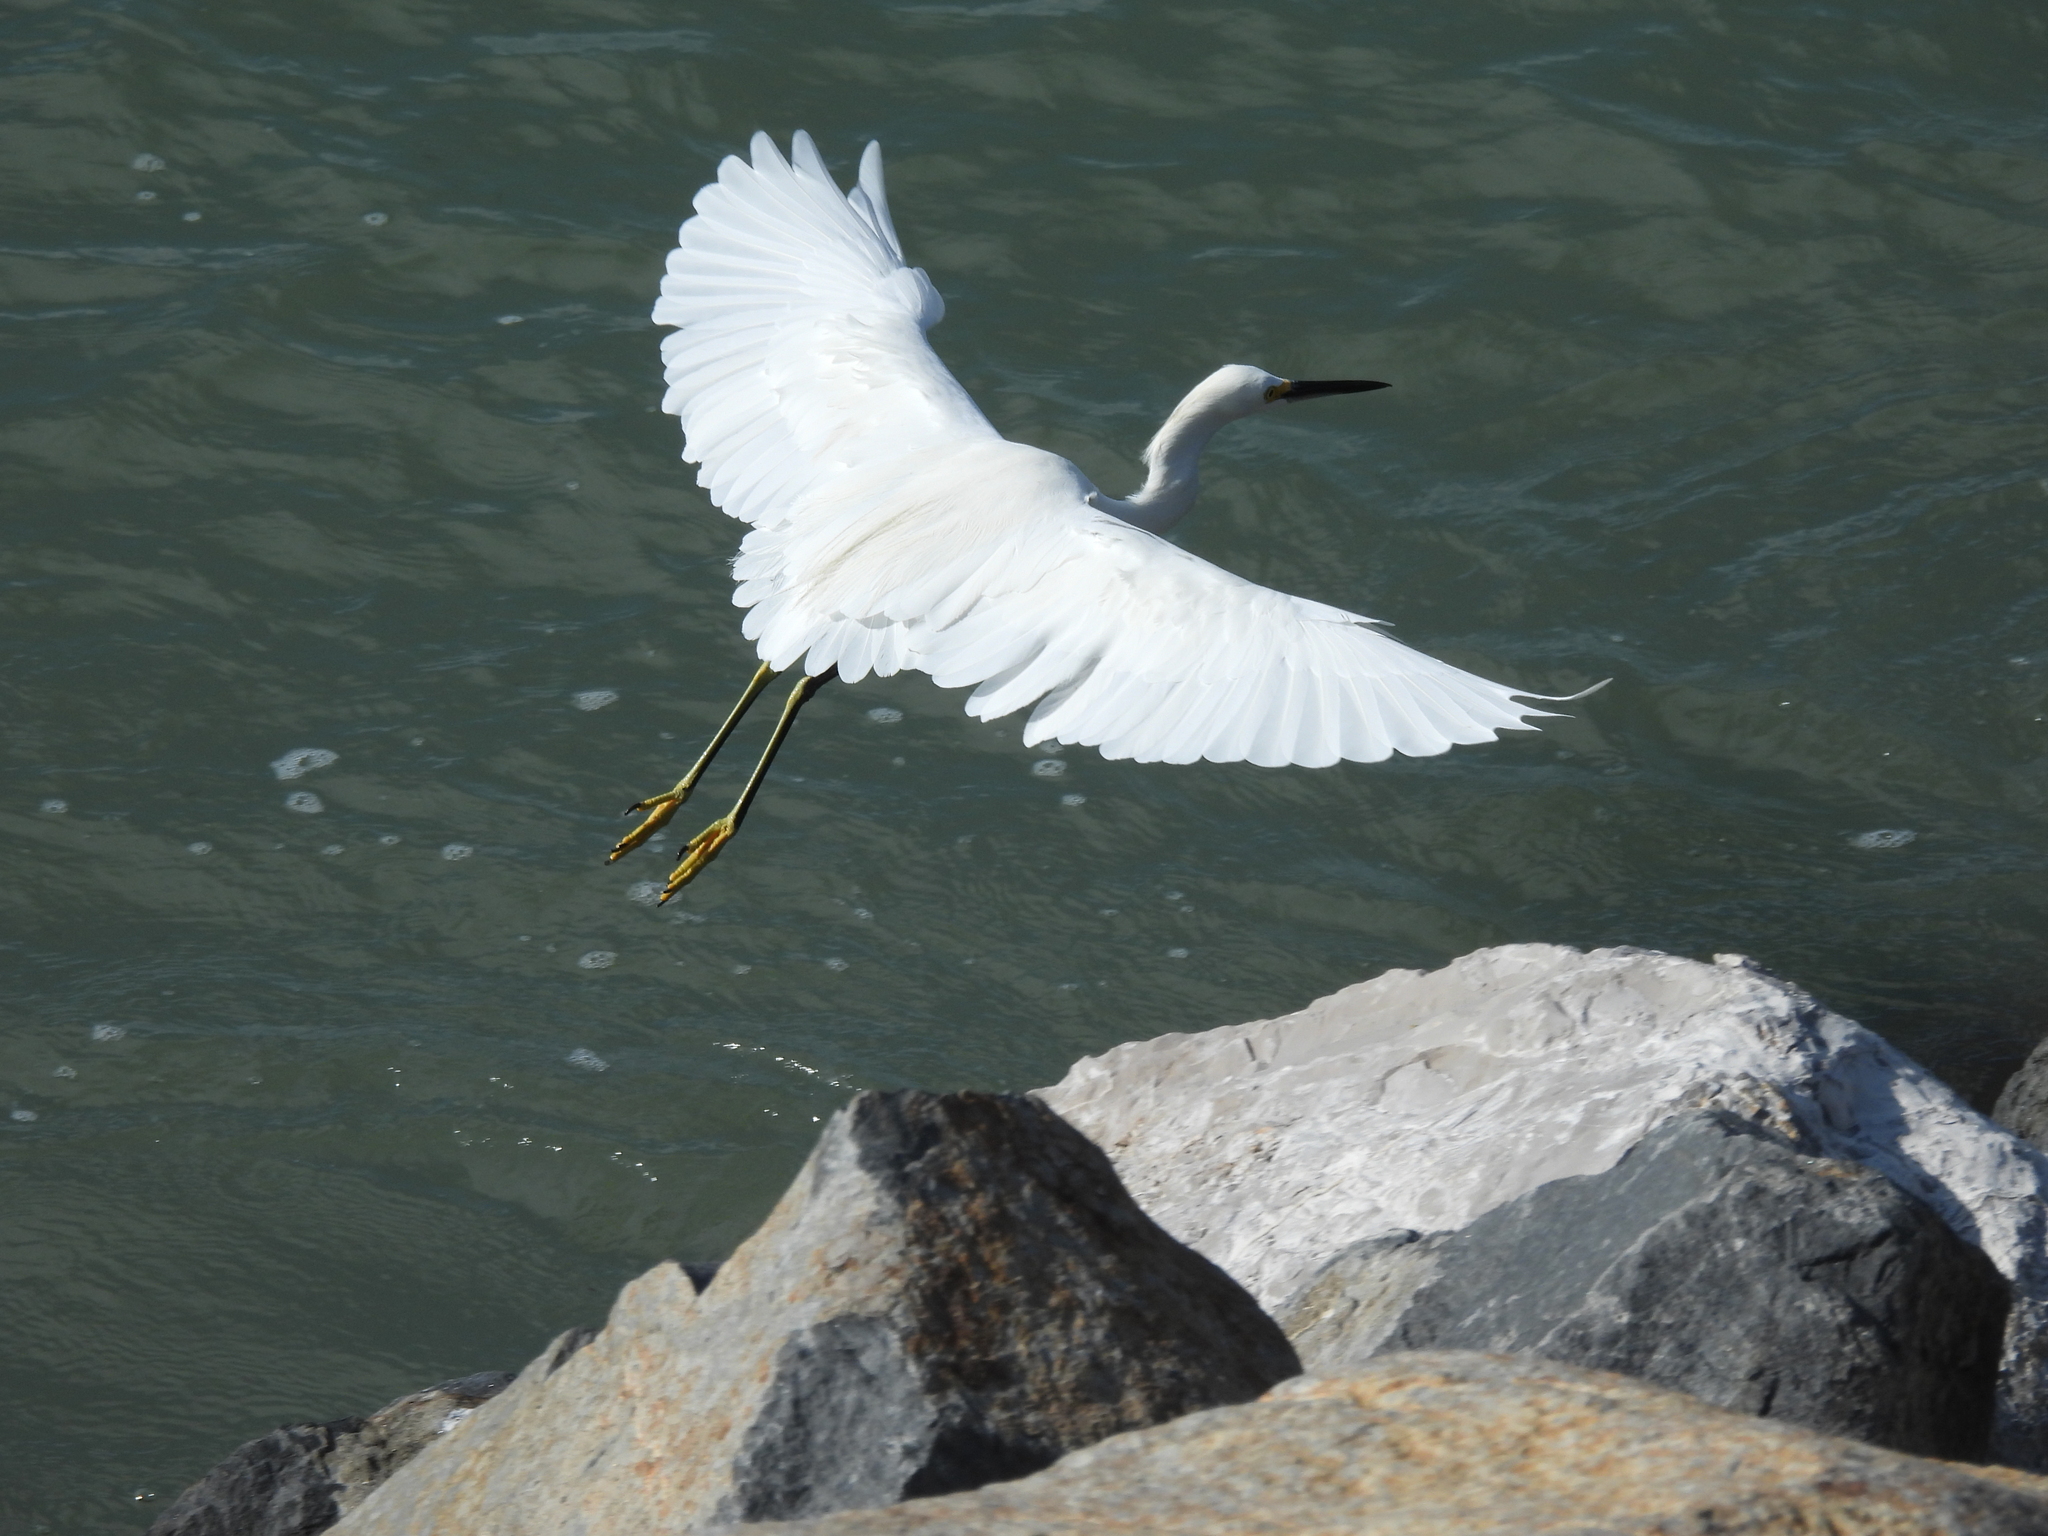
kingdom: Animalia
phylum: Chordata
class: Aves
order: Pelecaniformes
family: Ardeidae
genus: Egretta
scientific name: Egretta thula
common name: Snowy egret
